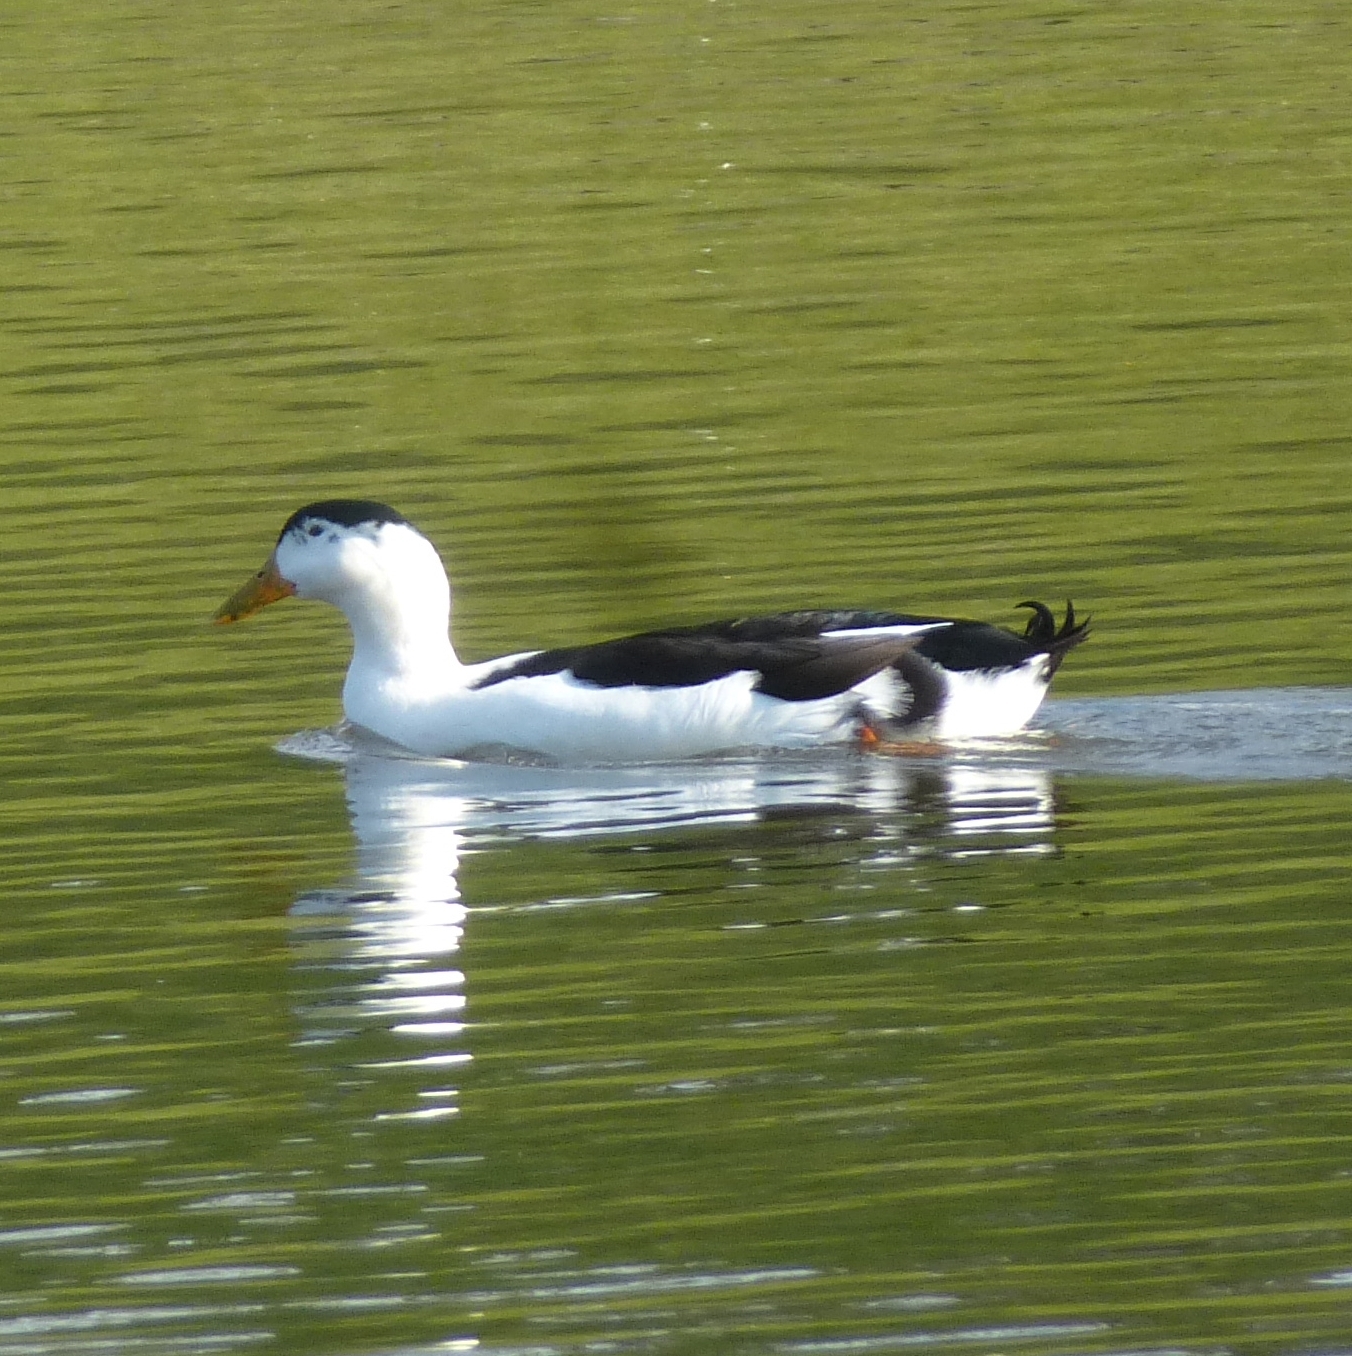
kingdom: Animalia
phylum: Chordata
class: Aves
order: Anseriformes
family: Anatidae
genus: Anas
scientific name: Anas platyrhynchos
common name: Mallard
